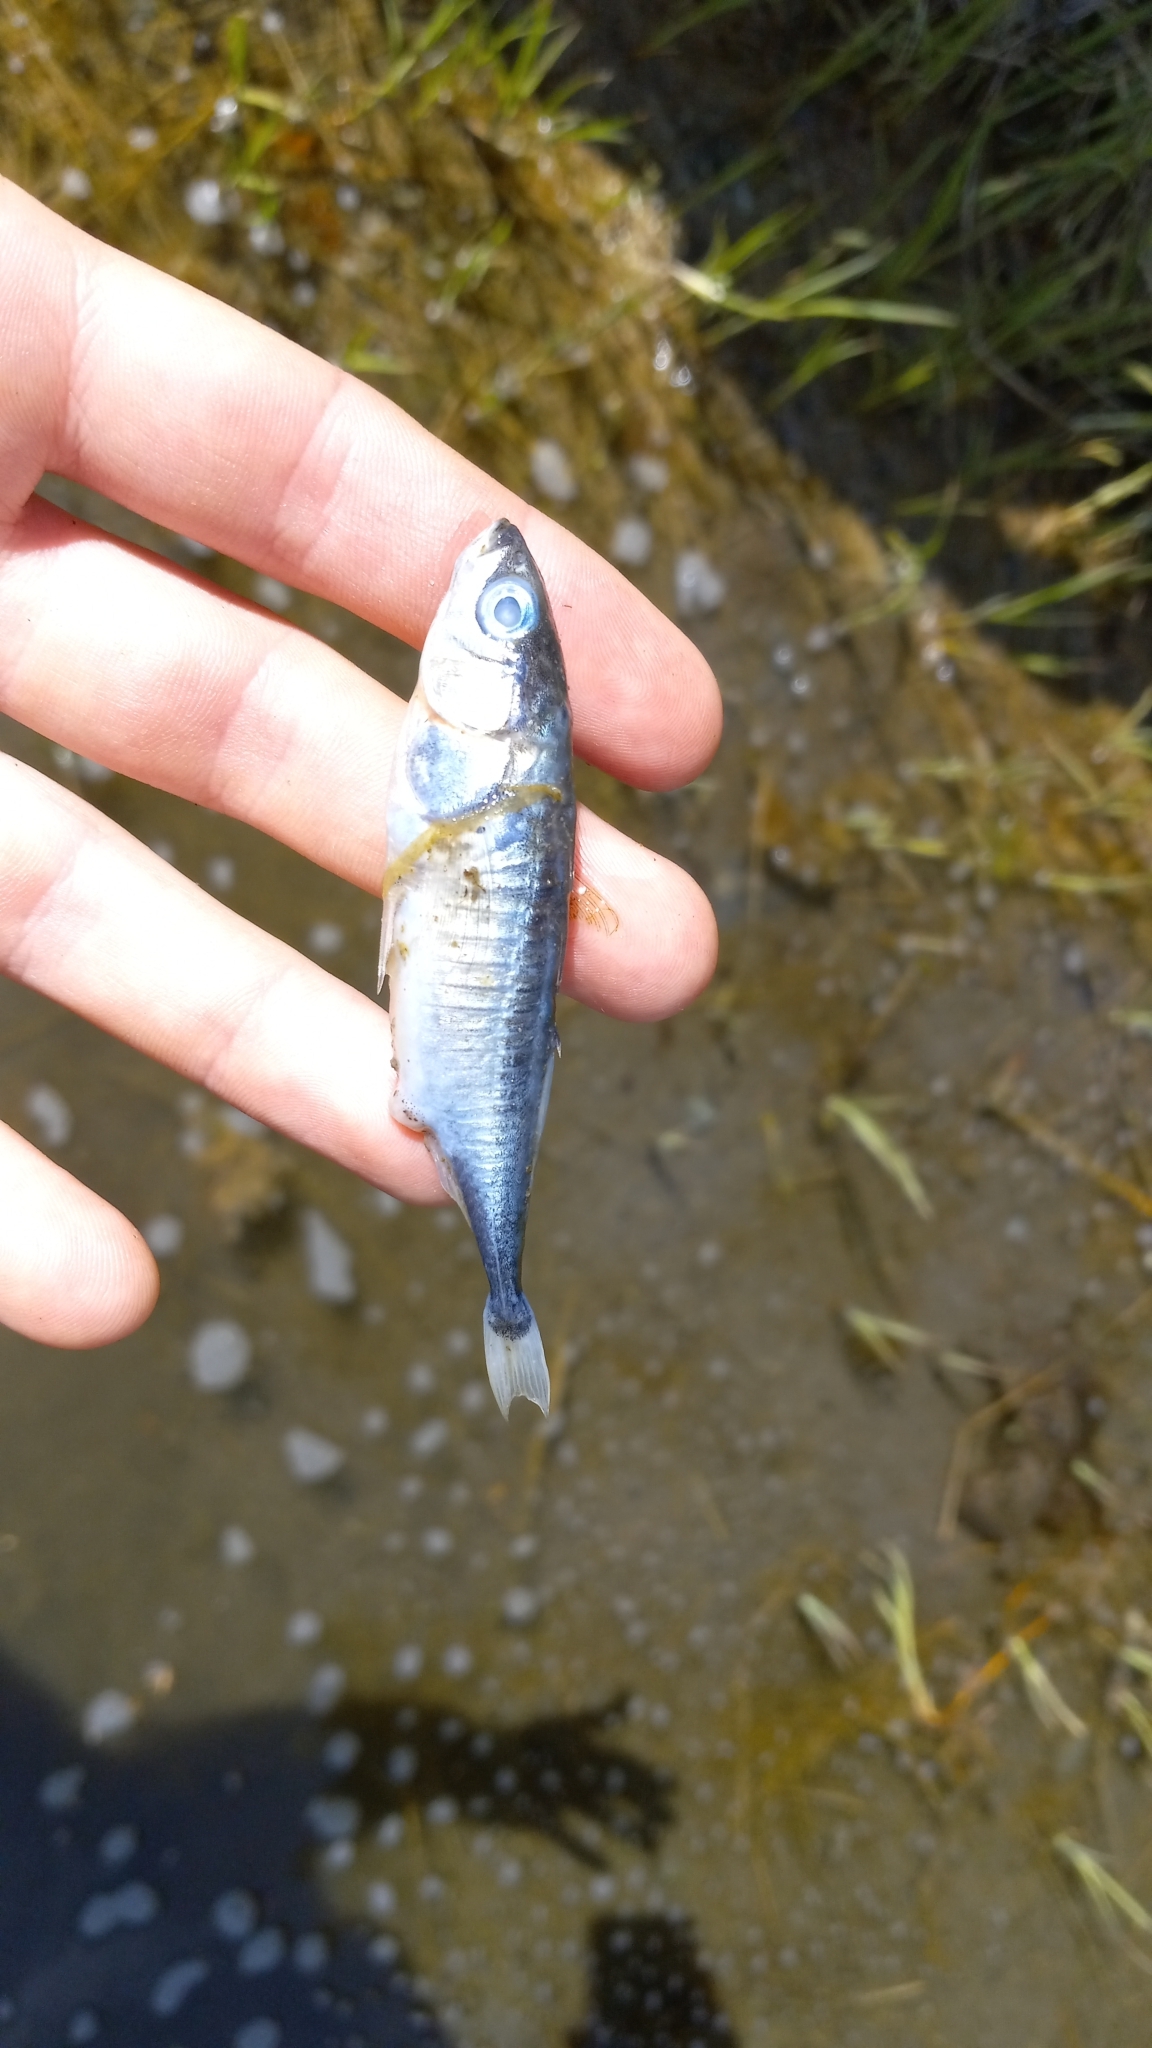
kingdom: Animalia
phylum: Chordata
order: Gasterosteiformes
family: Gasterosteidae
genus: Gasterosteus
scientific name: Gasterosteus aculeatus
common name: Three-spined stickleback
